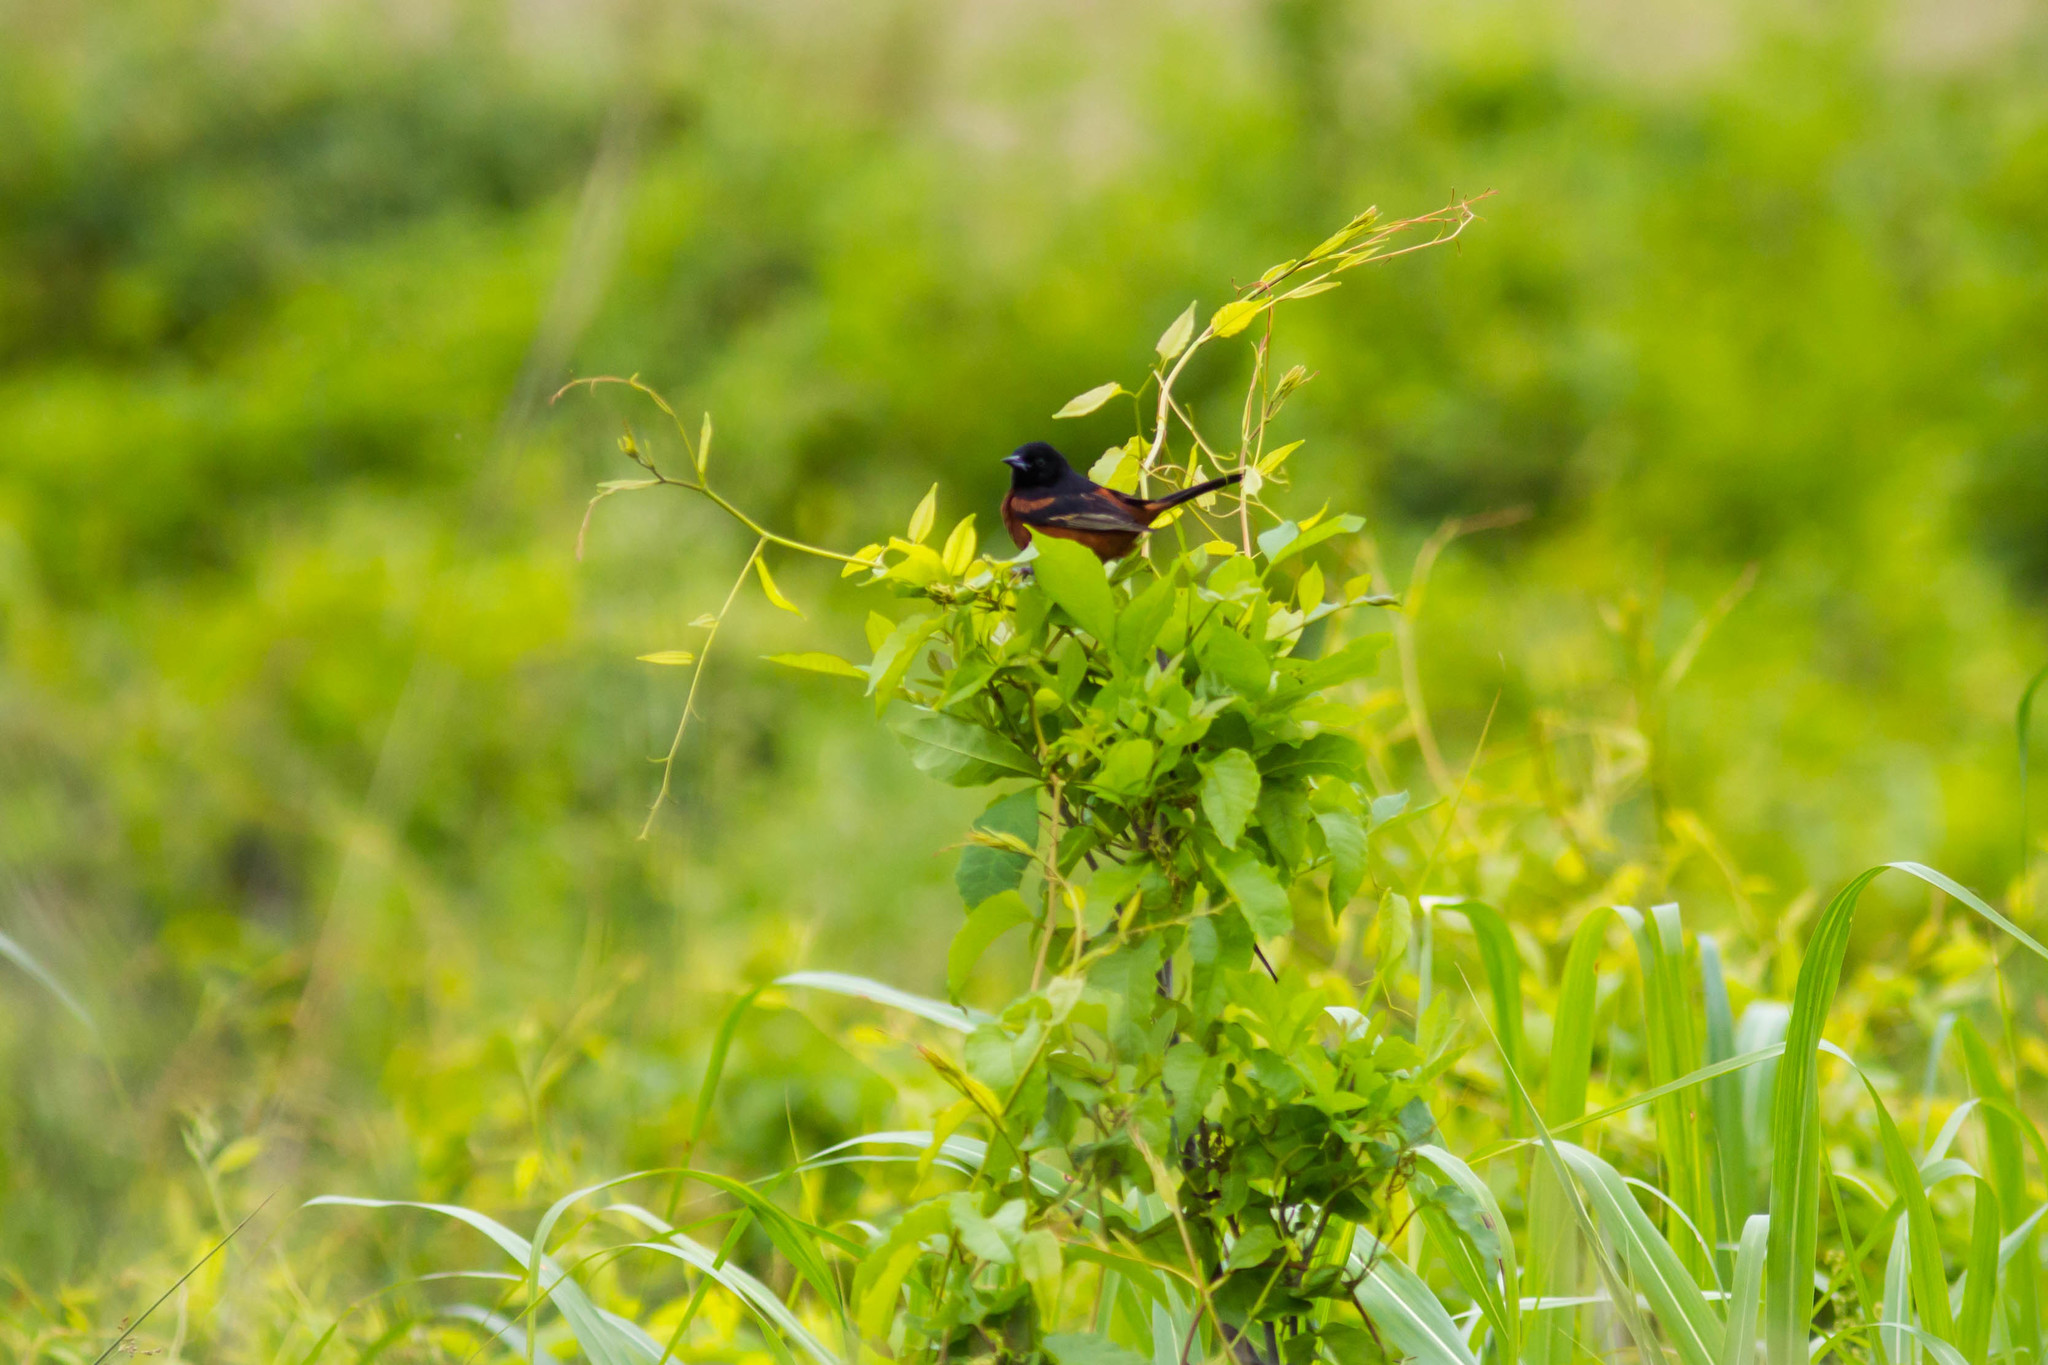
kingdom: Animalia
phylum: Chordata
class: Aves
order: Passeriformes
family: Icteridae
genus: Icterus
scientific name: Icterus spurius
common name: Orchard oriole
